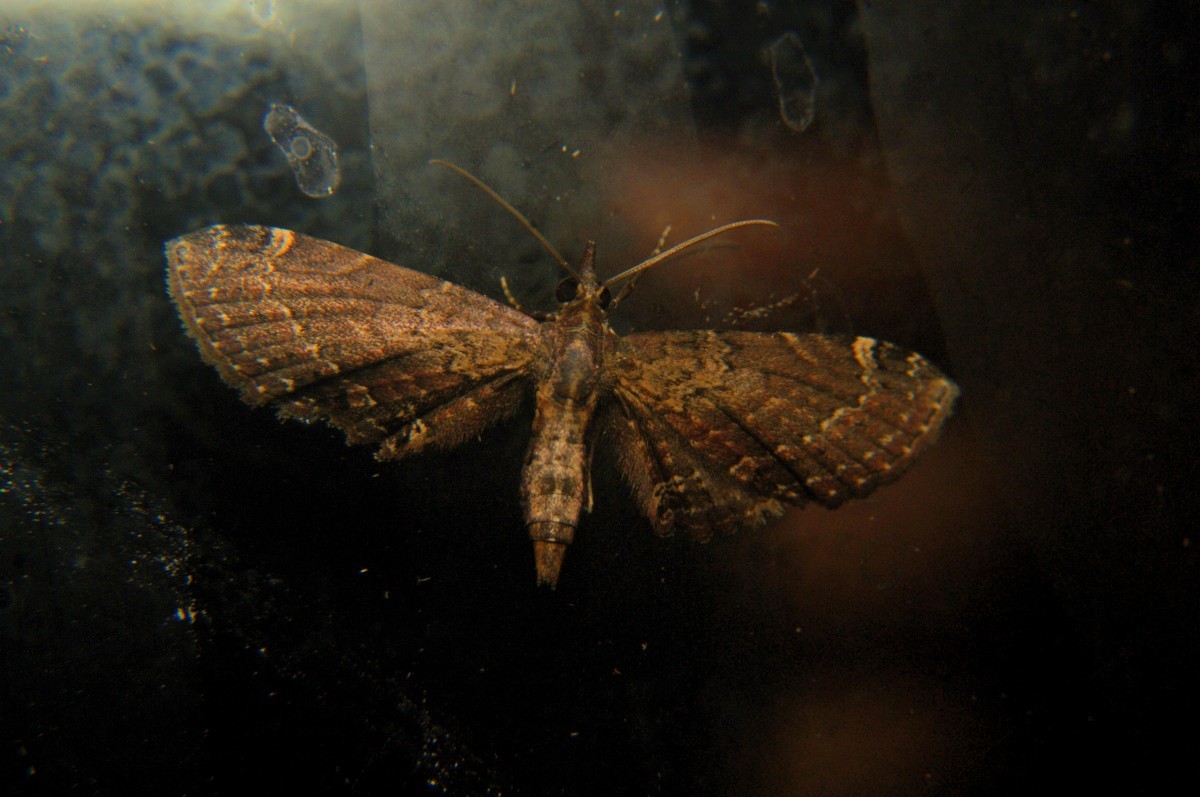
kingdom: Animalia
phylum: Arthropoda
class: Insecta
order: Lepidoptera
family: Geometridae
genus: Eupithecia
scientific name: Eupithecia rigida
